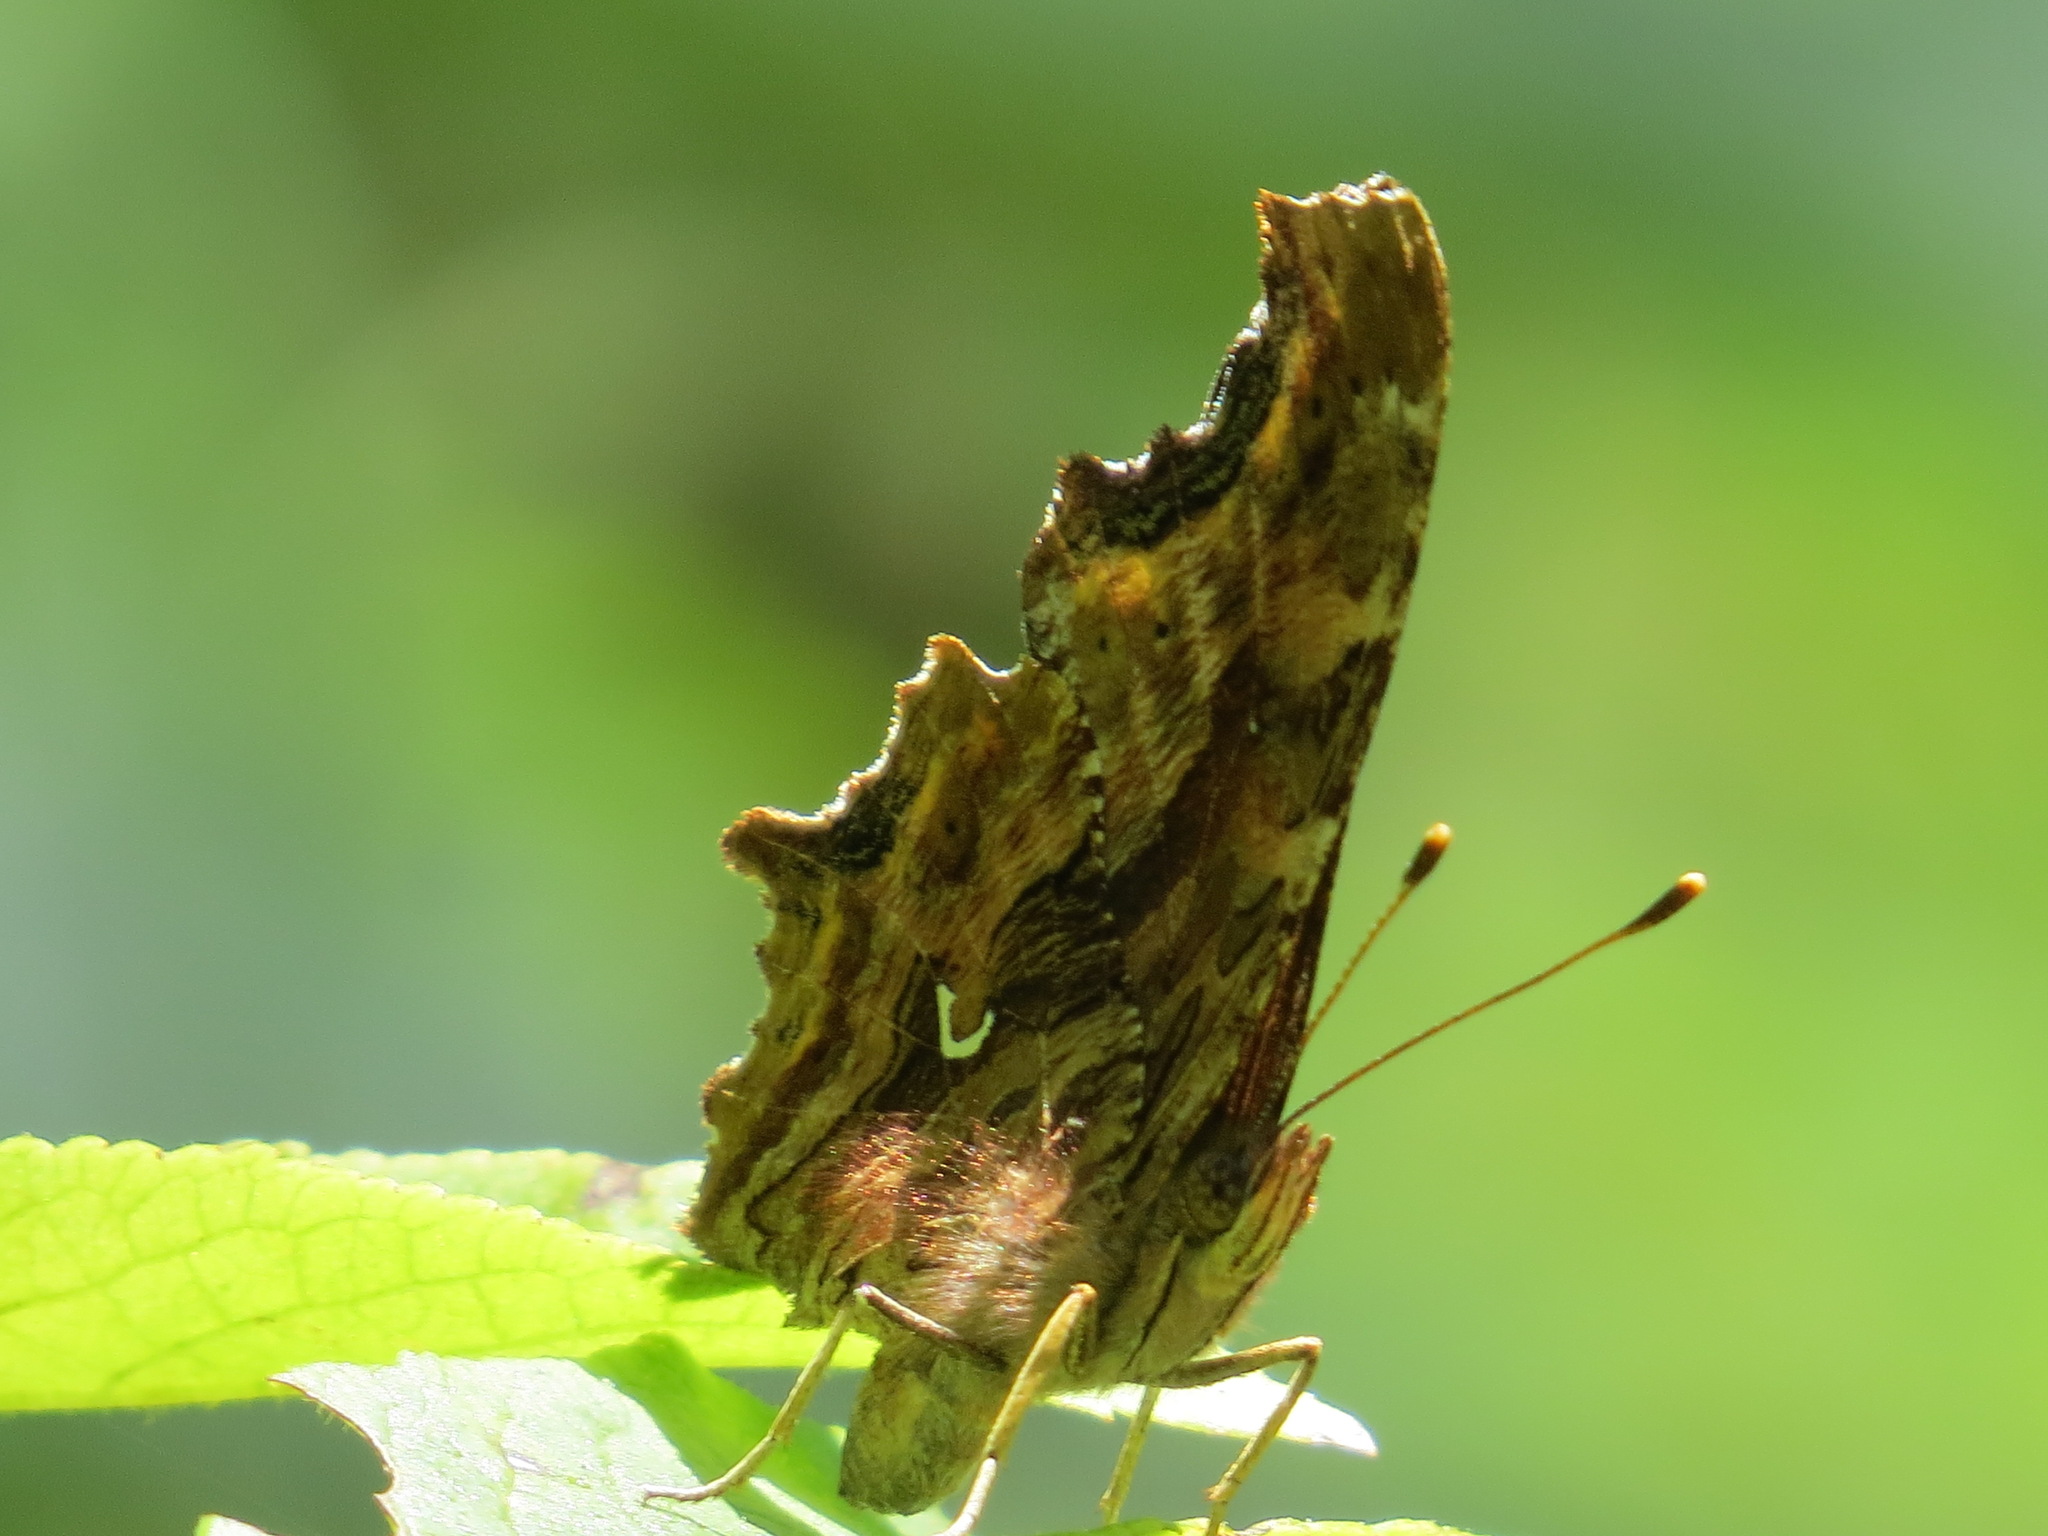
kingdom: Animalia
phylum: Arthropoda
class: Insecta
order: Lepidoptera
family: Nymphalidae
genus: Polygonia
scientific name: Polygonia satyrus
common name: Satyr angle wing
